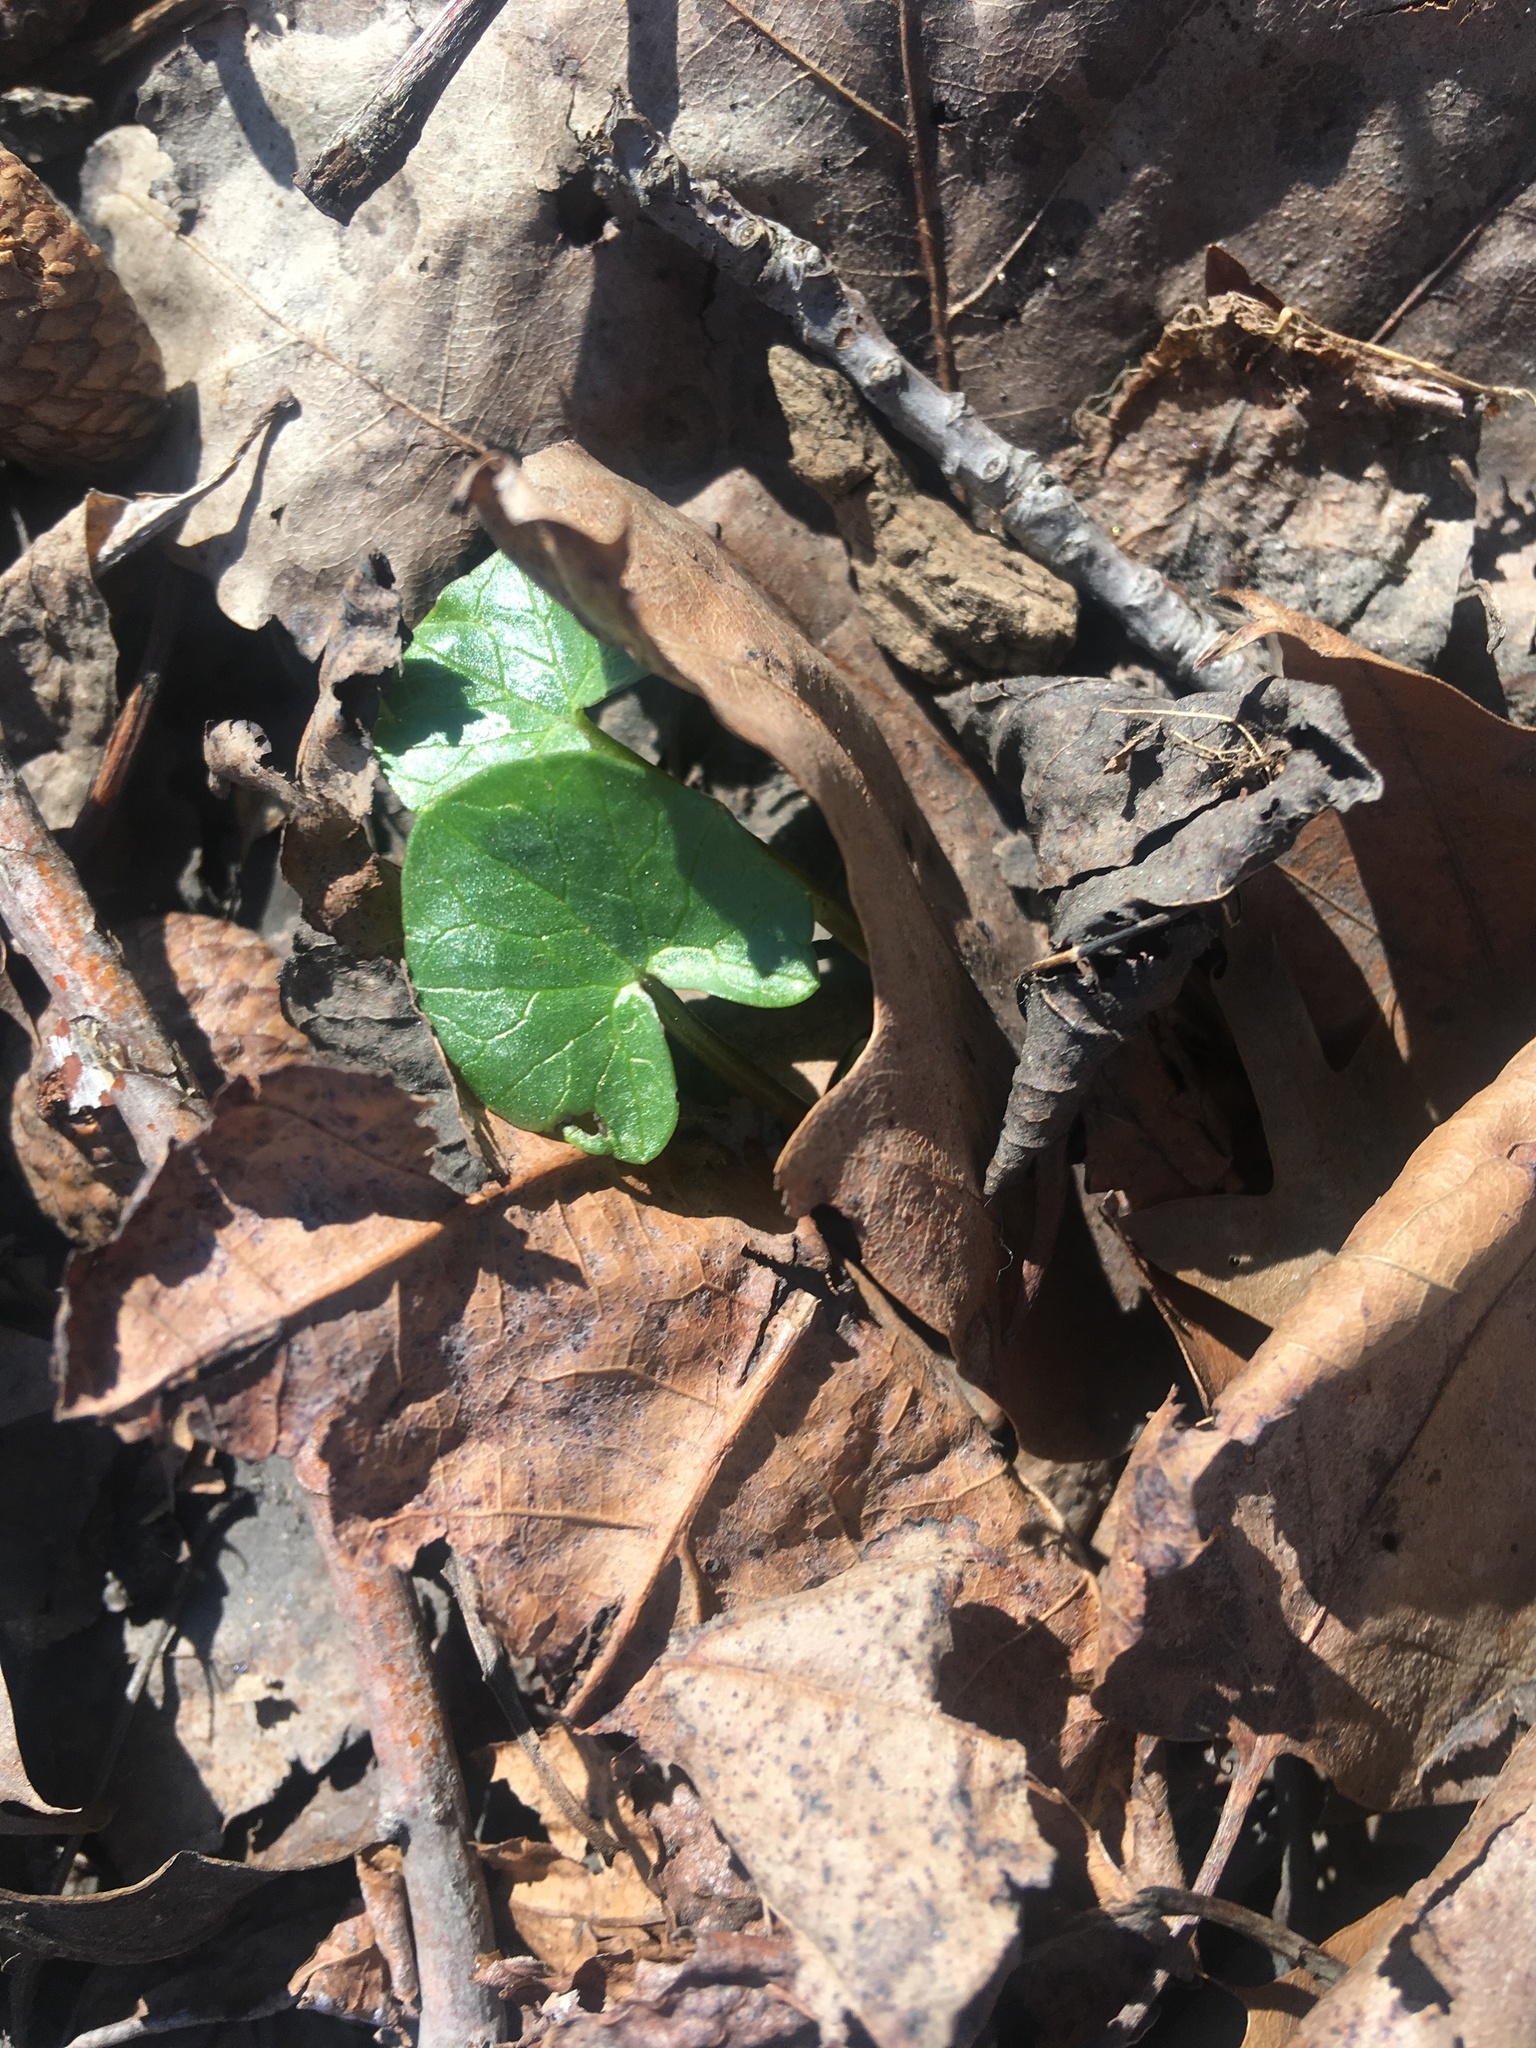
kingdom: Plantae
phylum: Tracheophyta
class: Magnoliopsida
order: Ranunculales
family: Ranunculaceae
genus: Ficaria
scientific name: Ficaria verna
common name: Lesser celandine
